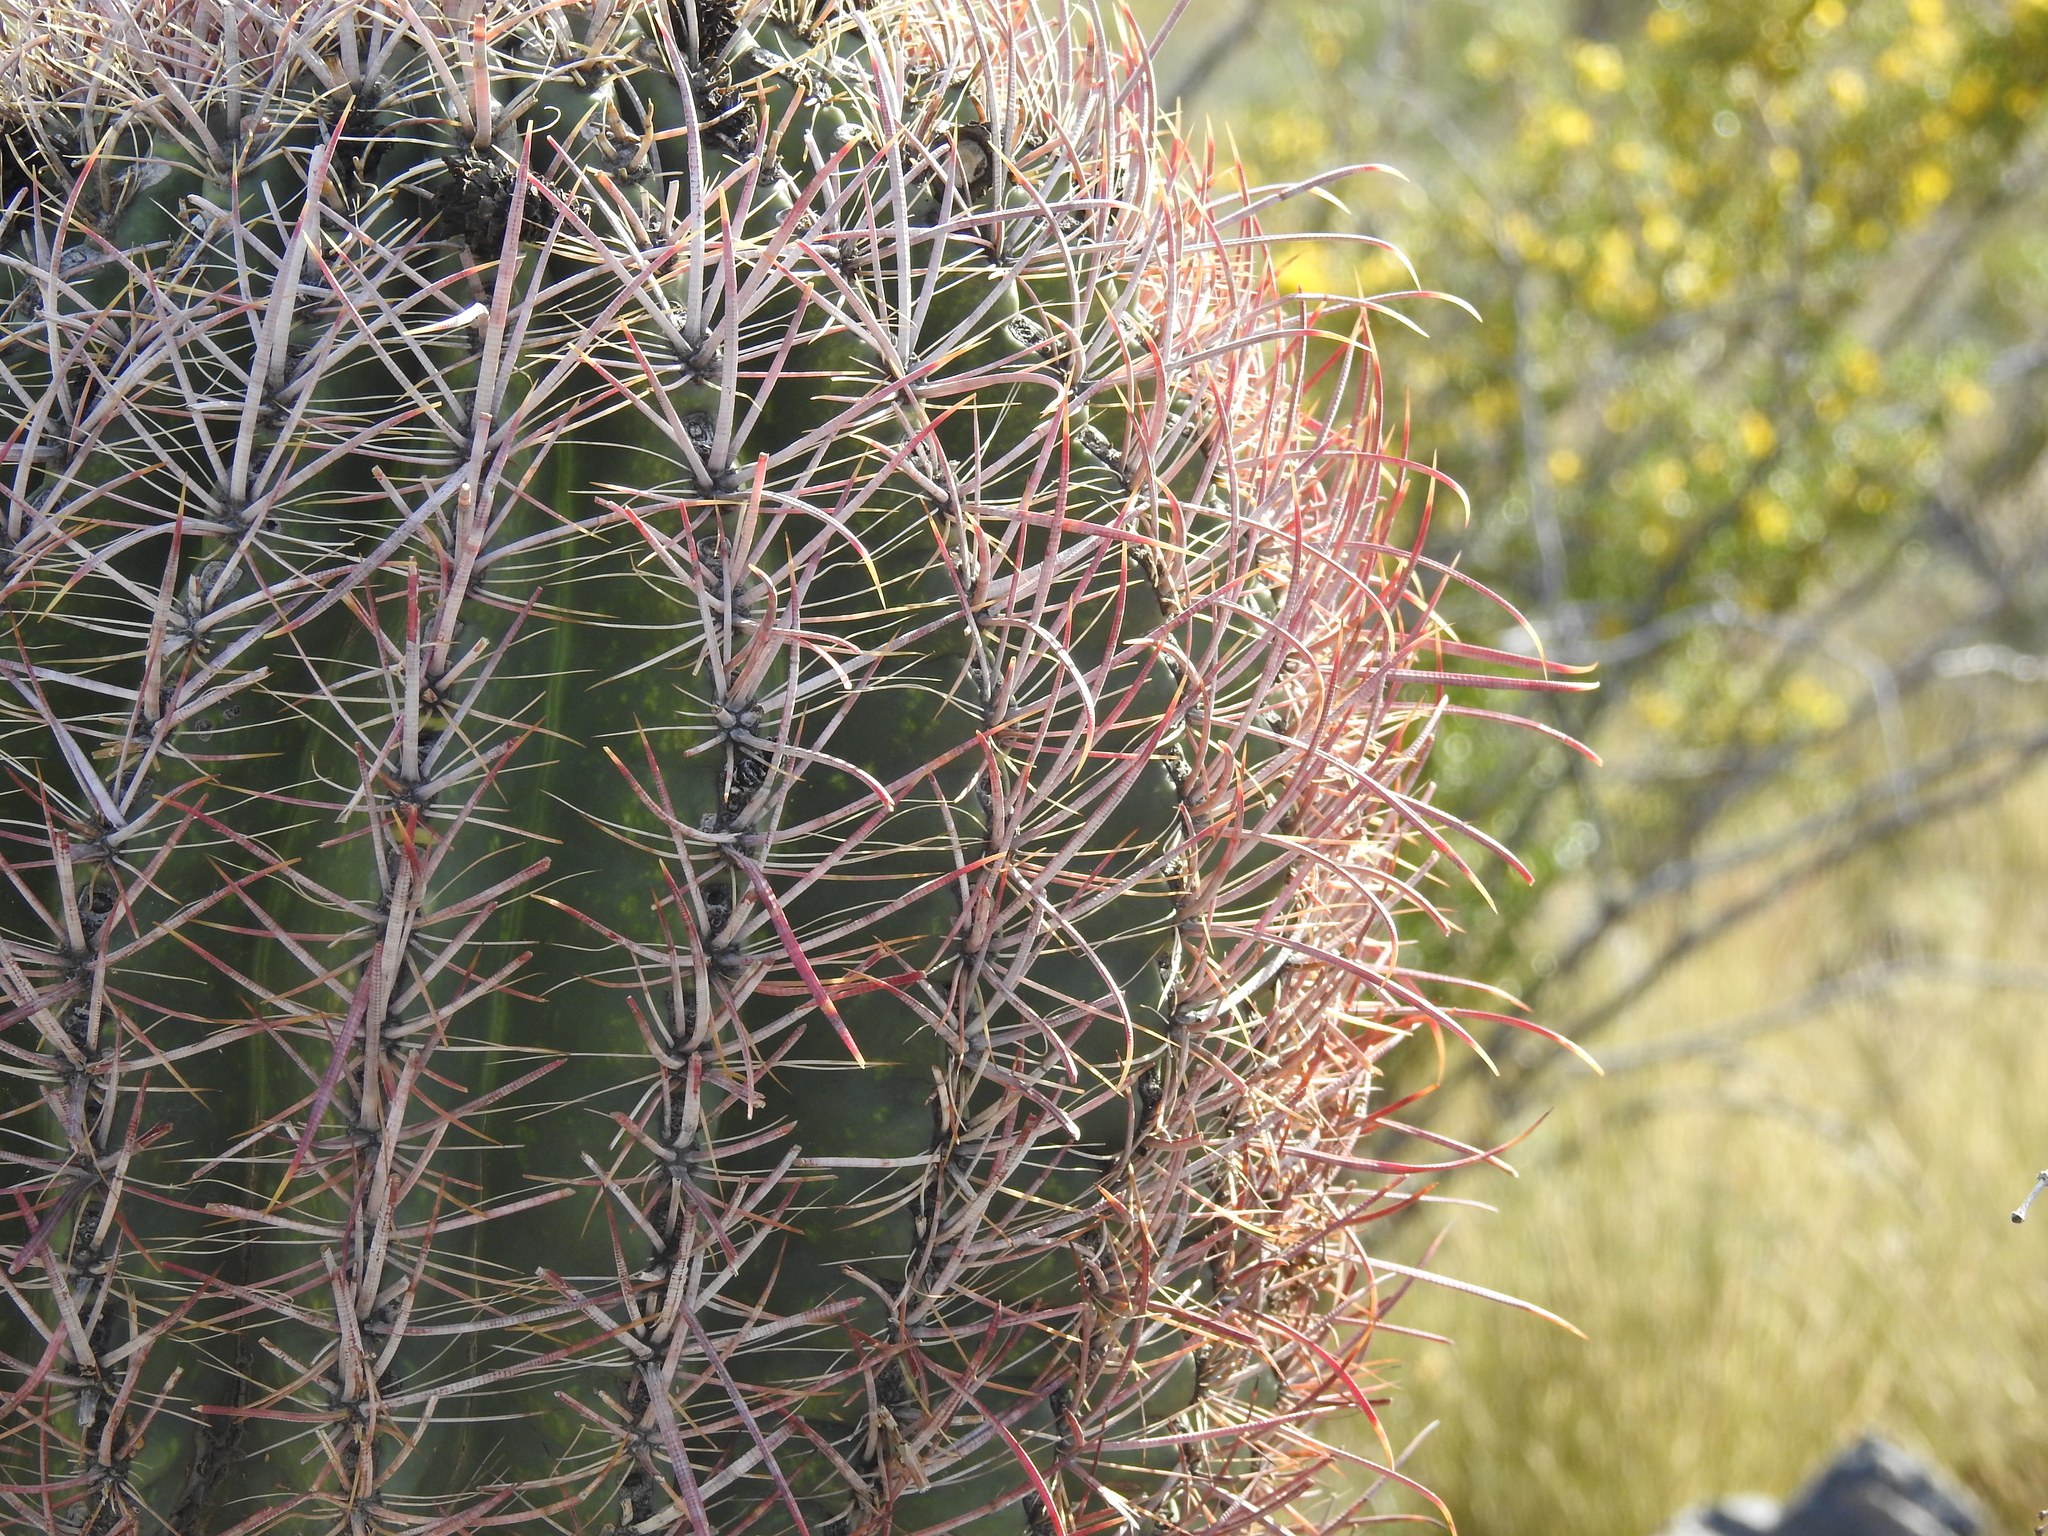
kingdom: Plantae
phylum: Tracheophyta
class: Magnoliopsida
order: Caryophyllales
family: Cactaceae
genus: Ferocactus
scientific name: Ferocactus cylindraceus
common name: California barrel cactus
